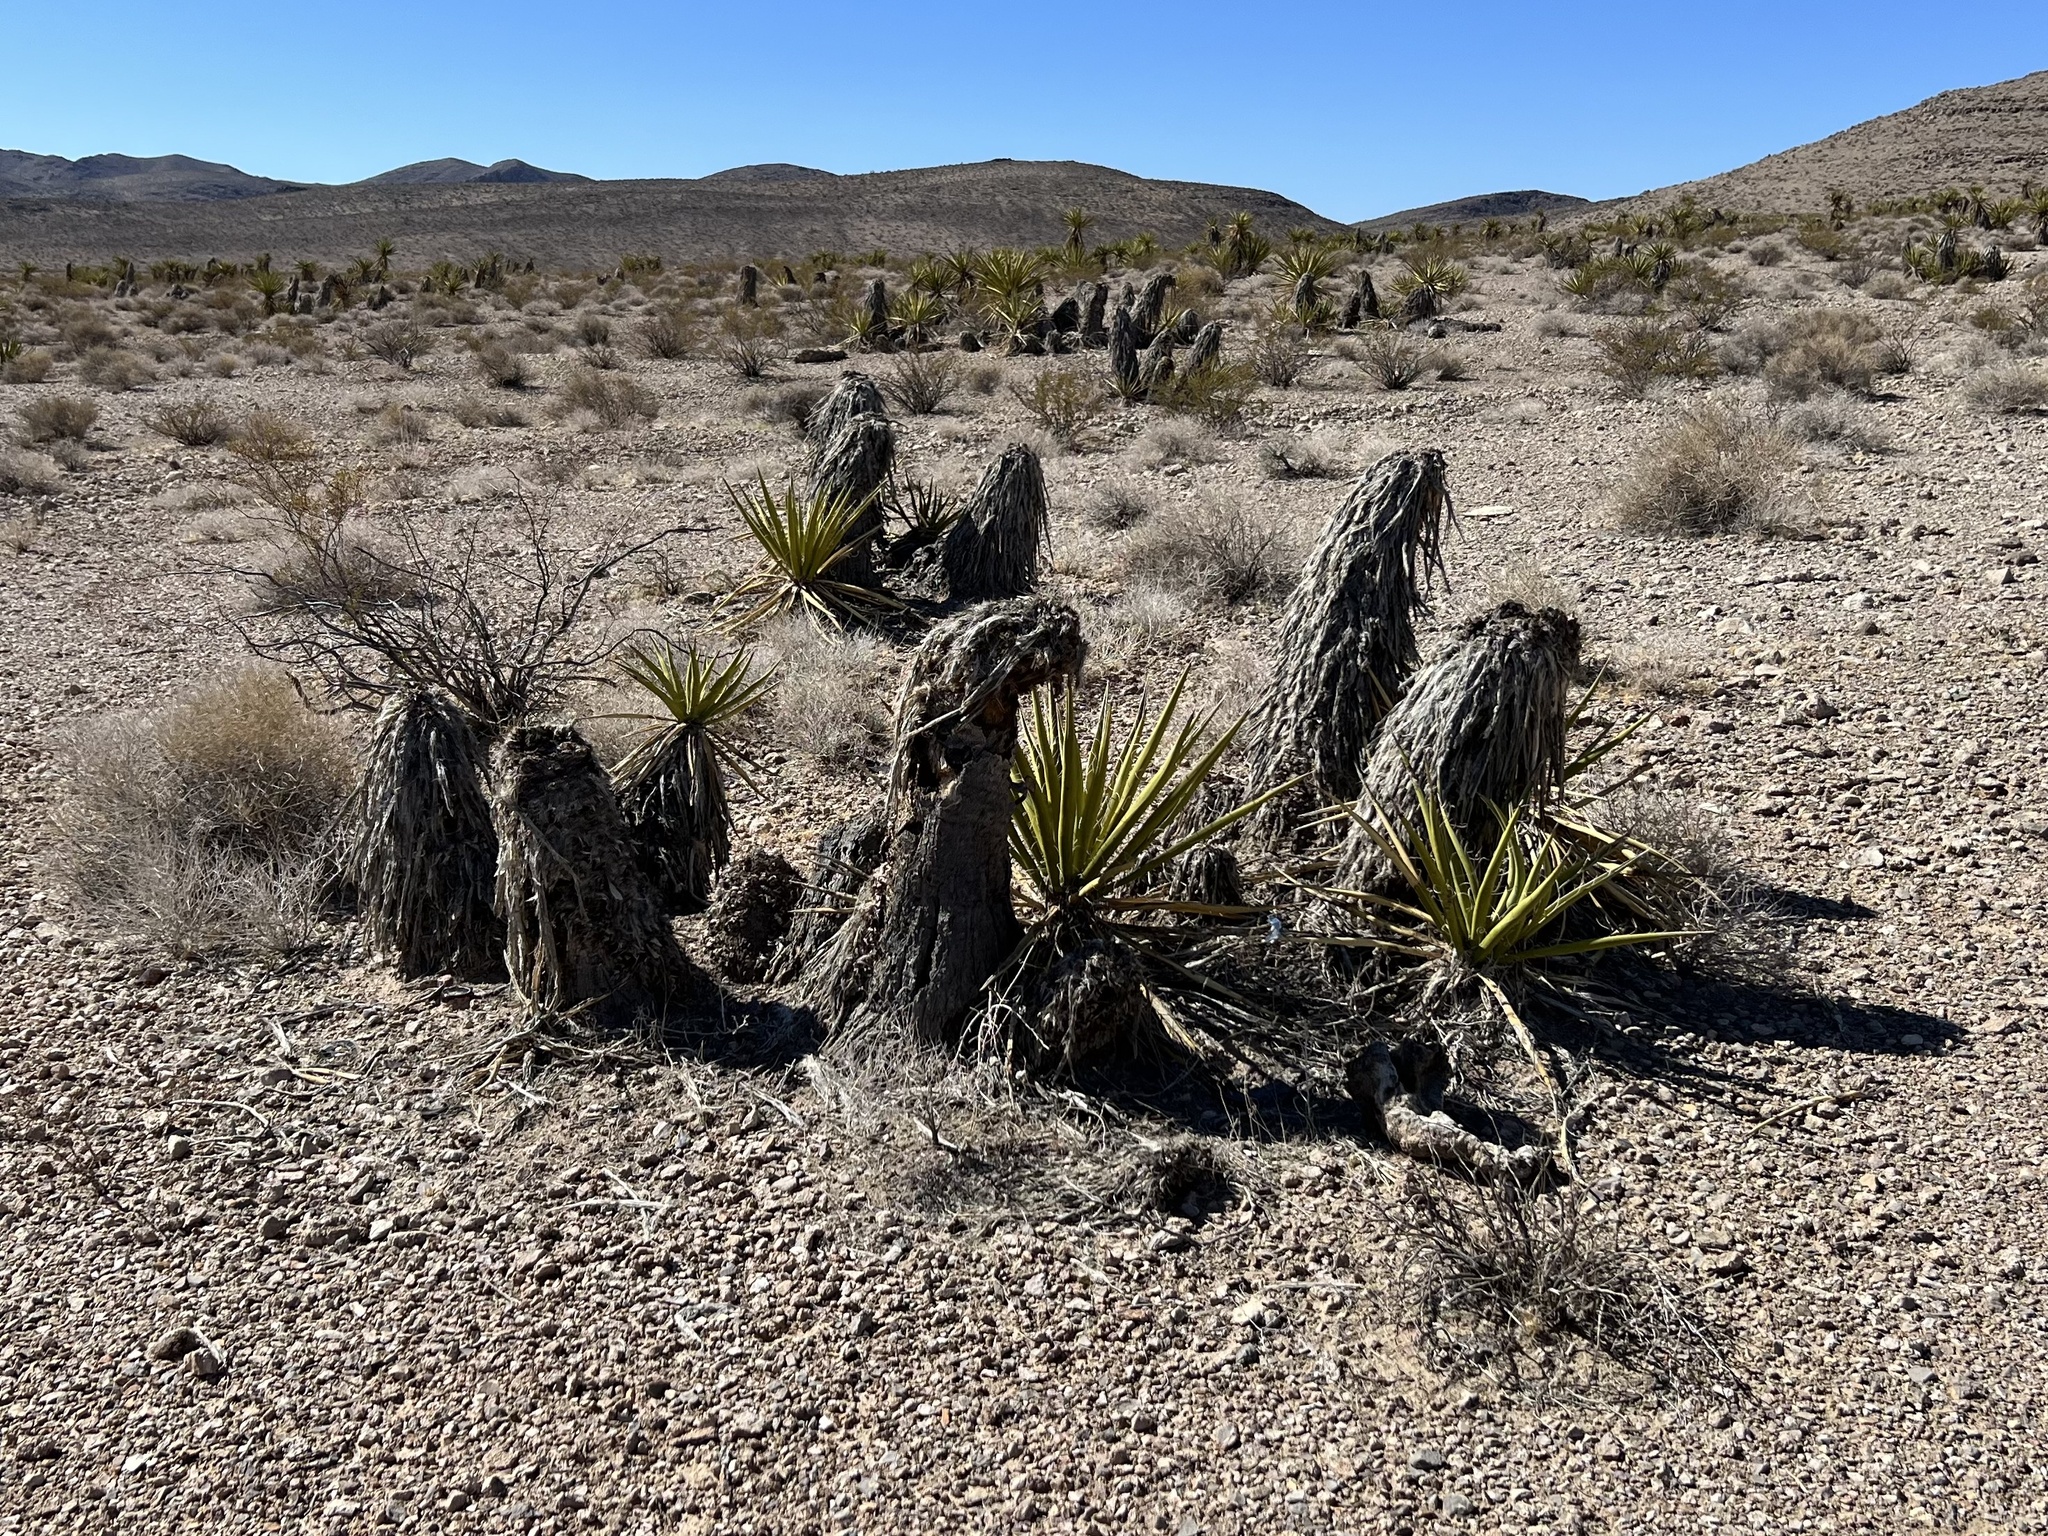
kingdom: Plantae
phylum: Tracheophyta
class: Liliopsida
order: Asparagales
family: Asparagaceae
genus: Yucca
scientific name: Yucca schidigera
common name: Mojave yucca
